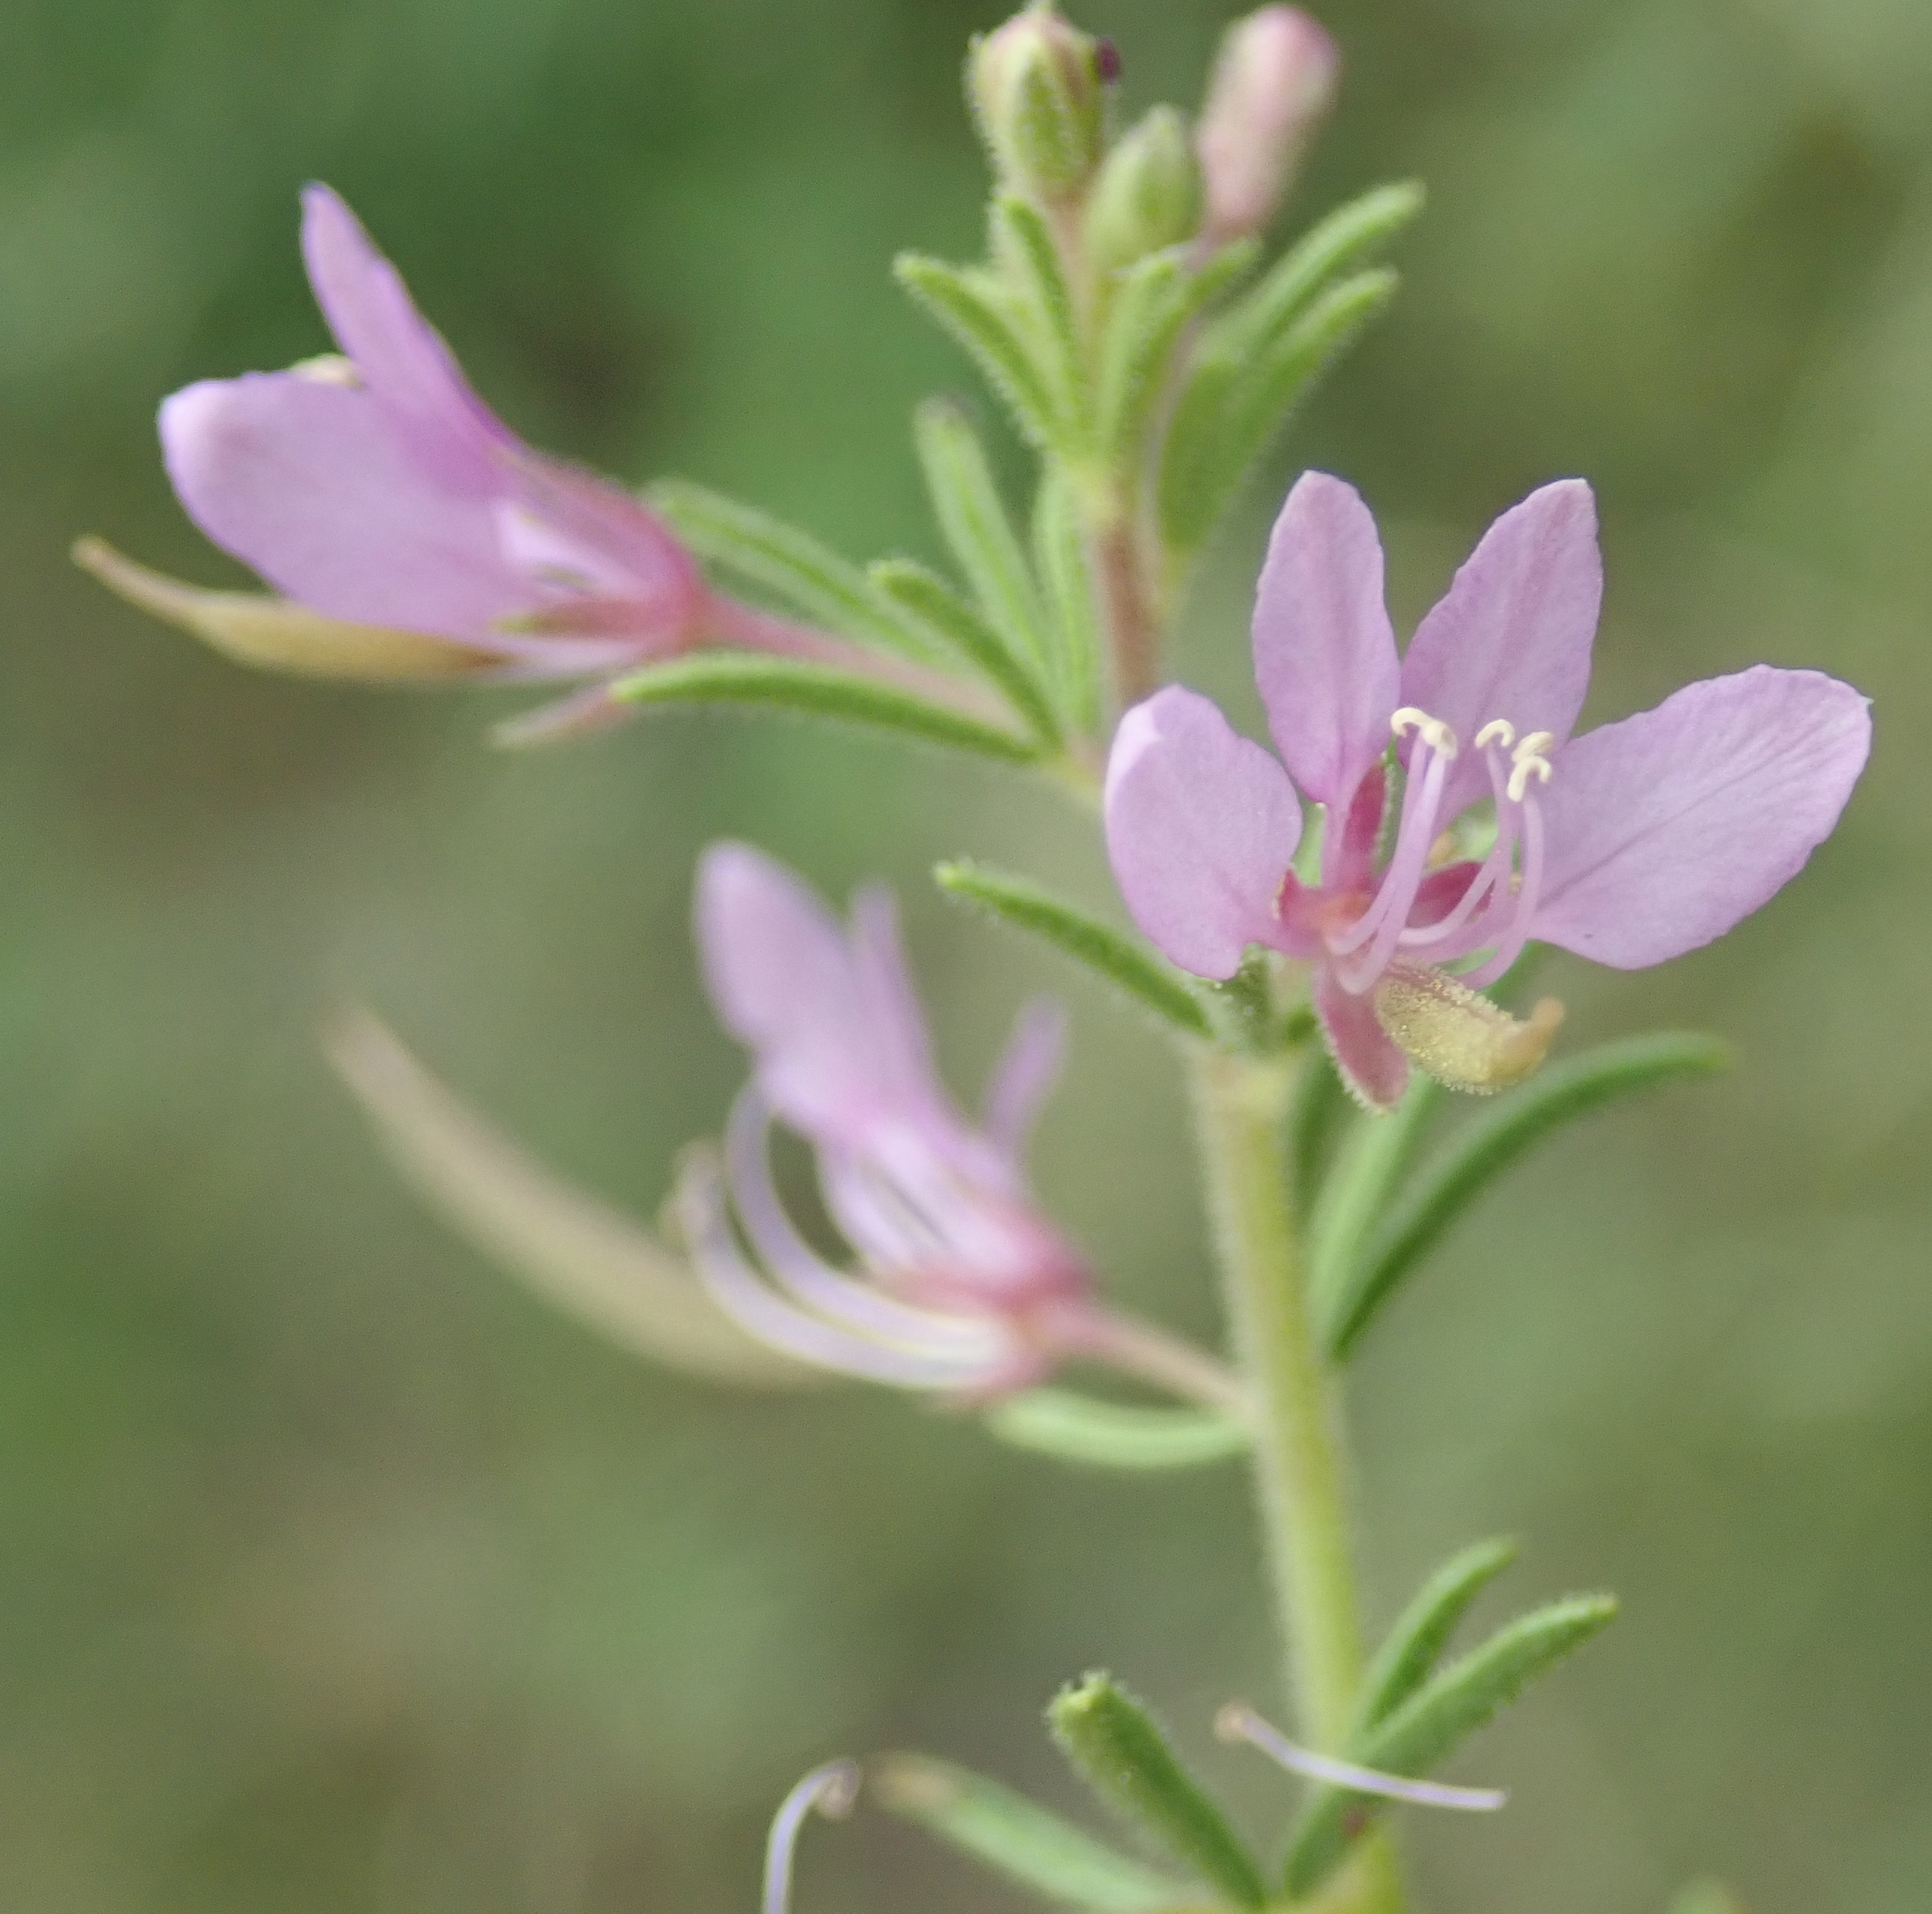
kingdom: Plantae
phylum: Tracheophyta
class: Magnoliopsida
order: Brassicales
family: Cleomaceae
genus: Sieruela
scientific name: Sieruela rubella
